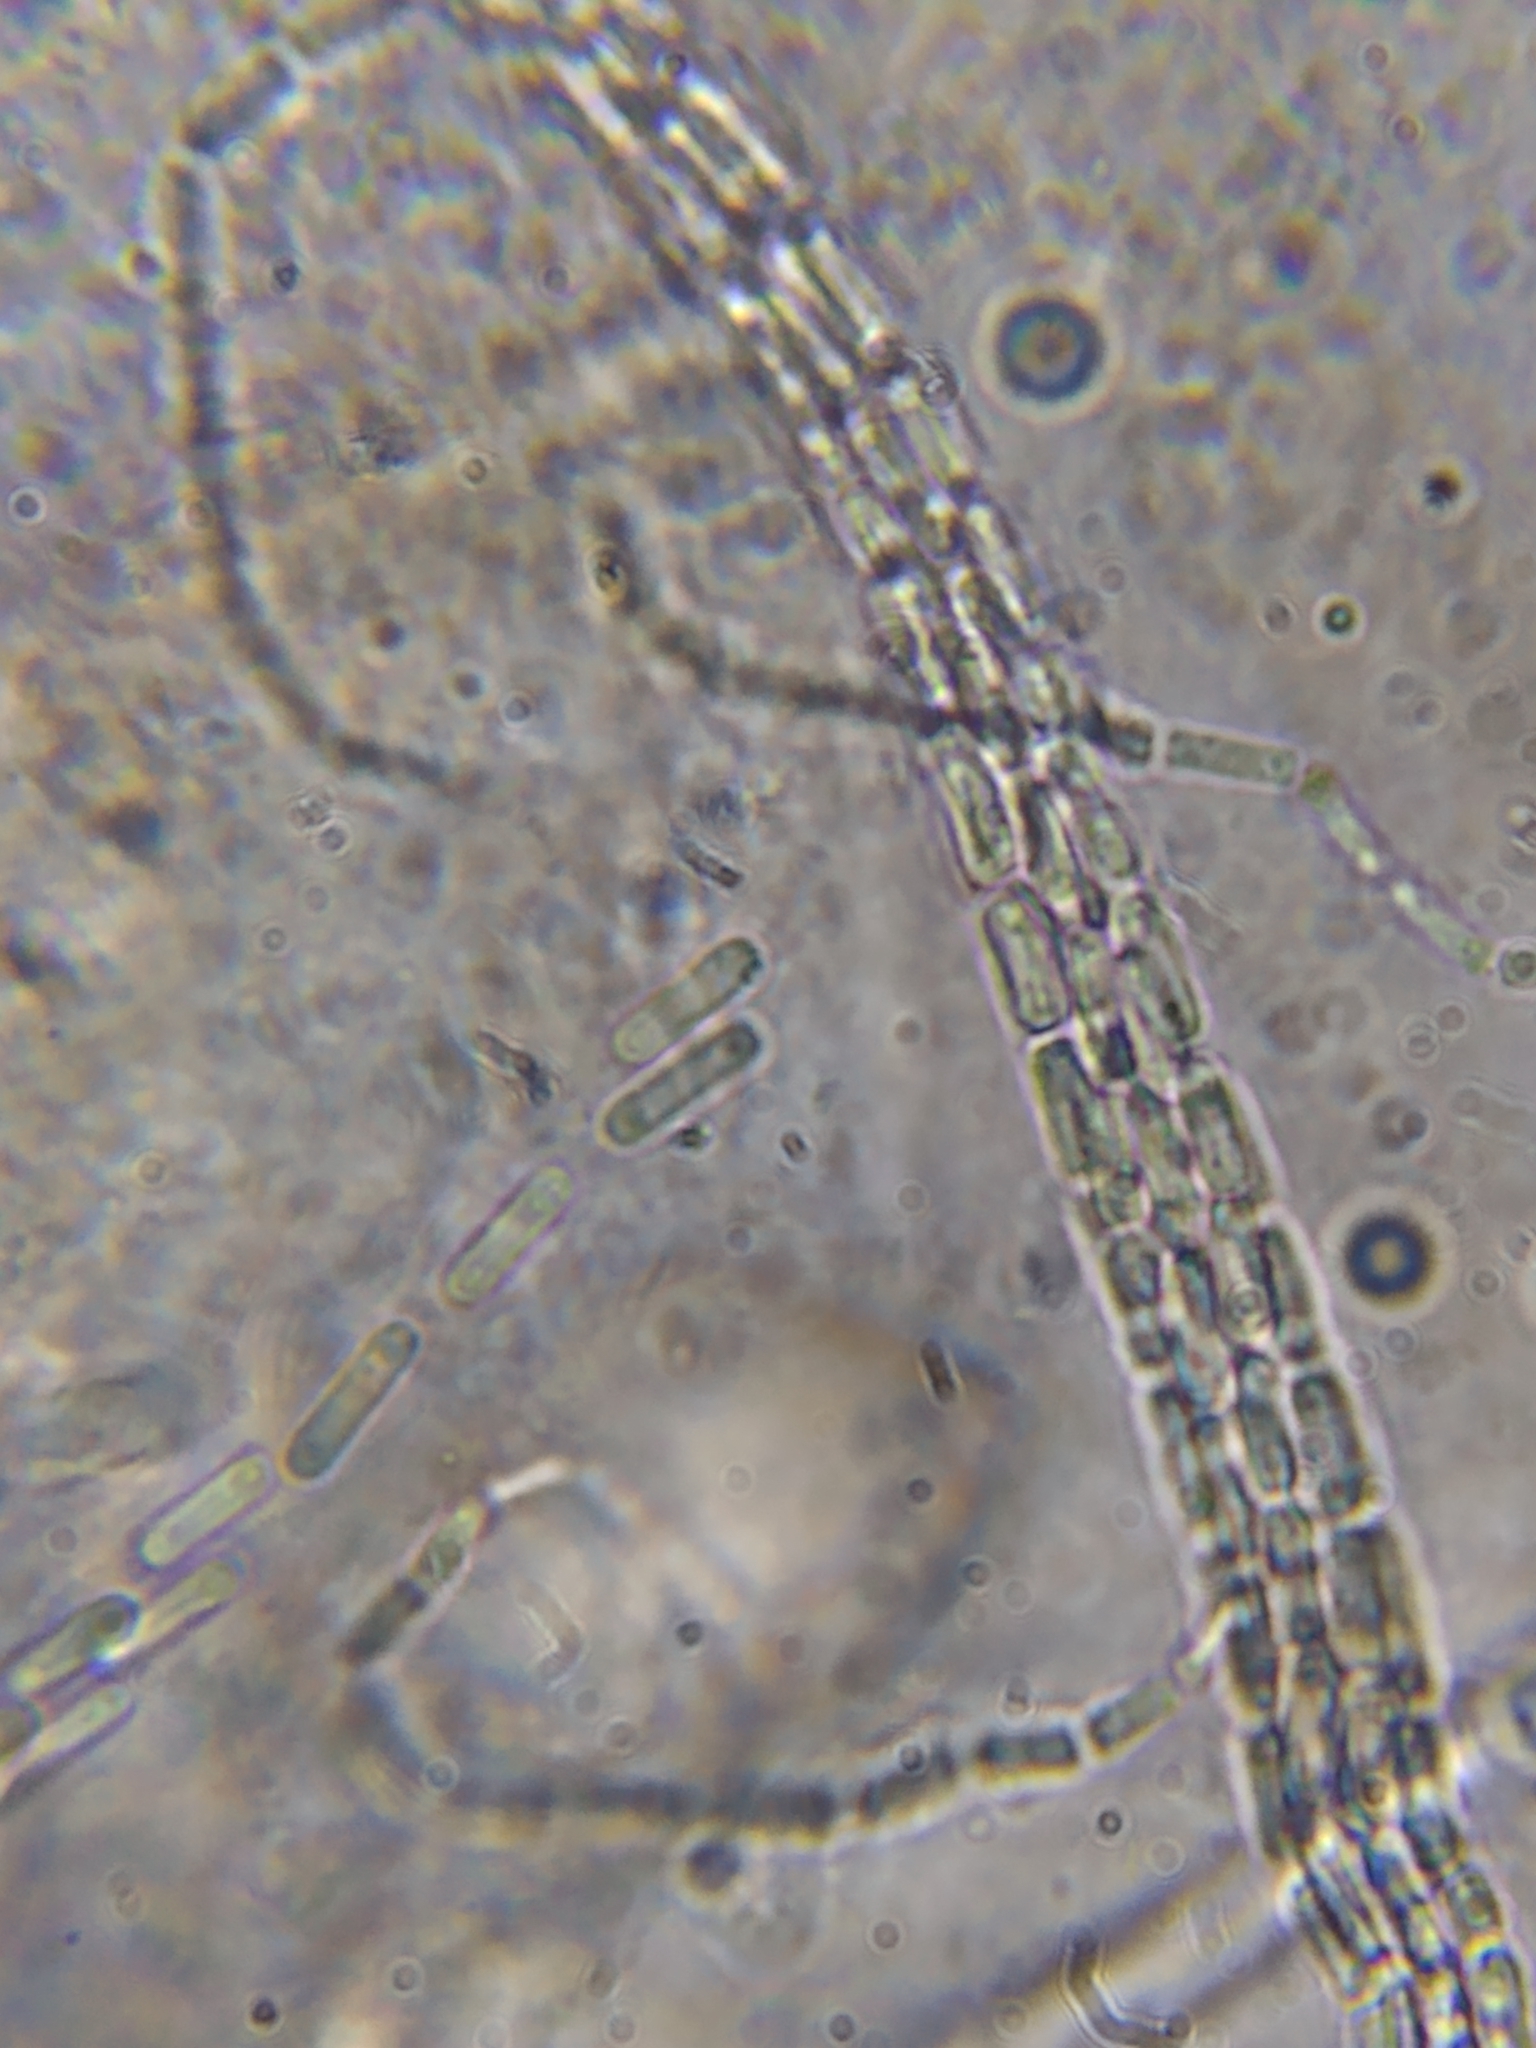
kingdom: Fungi
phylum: Ascomycota
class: Sordariomycetes
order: Hypocreales
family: Ophiocordycipitaceae
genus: Ophiocordyceps
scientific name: Ophiocordyceps variabilis
